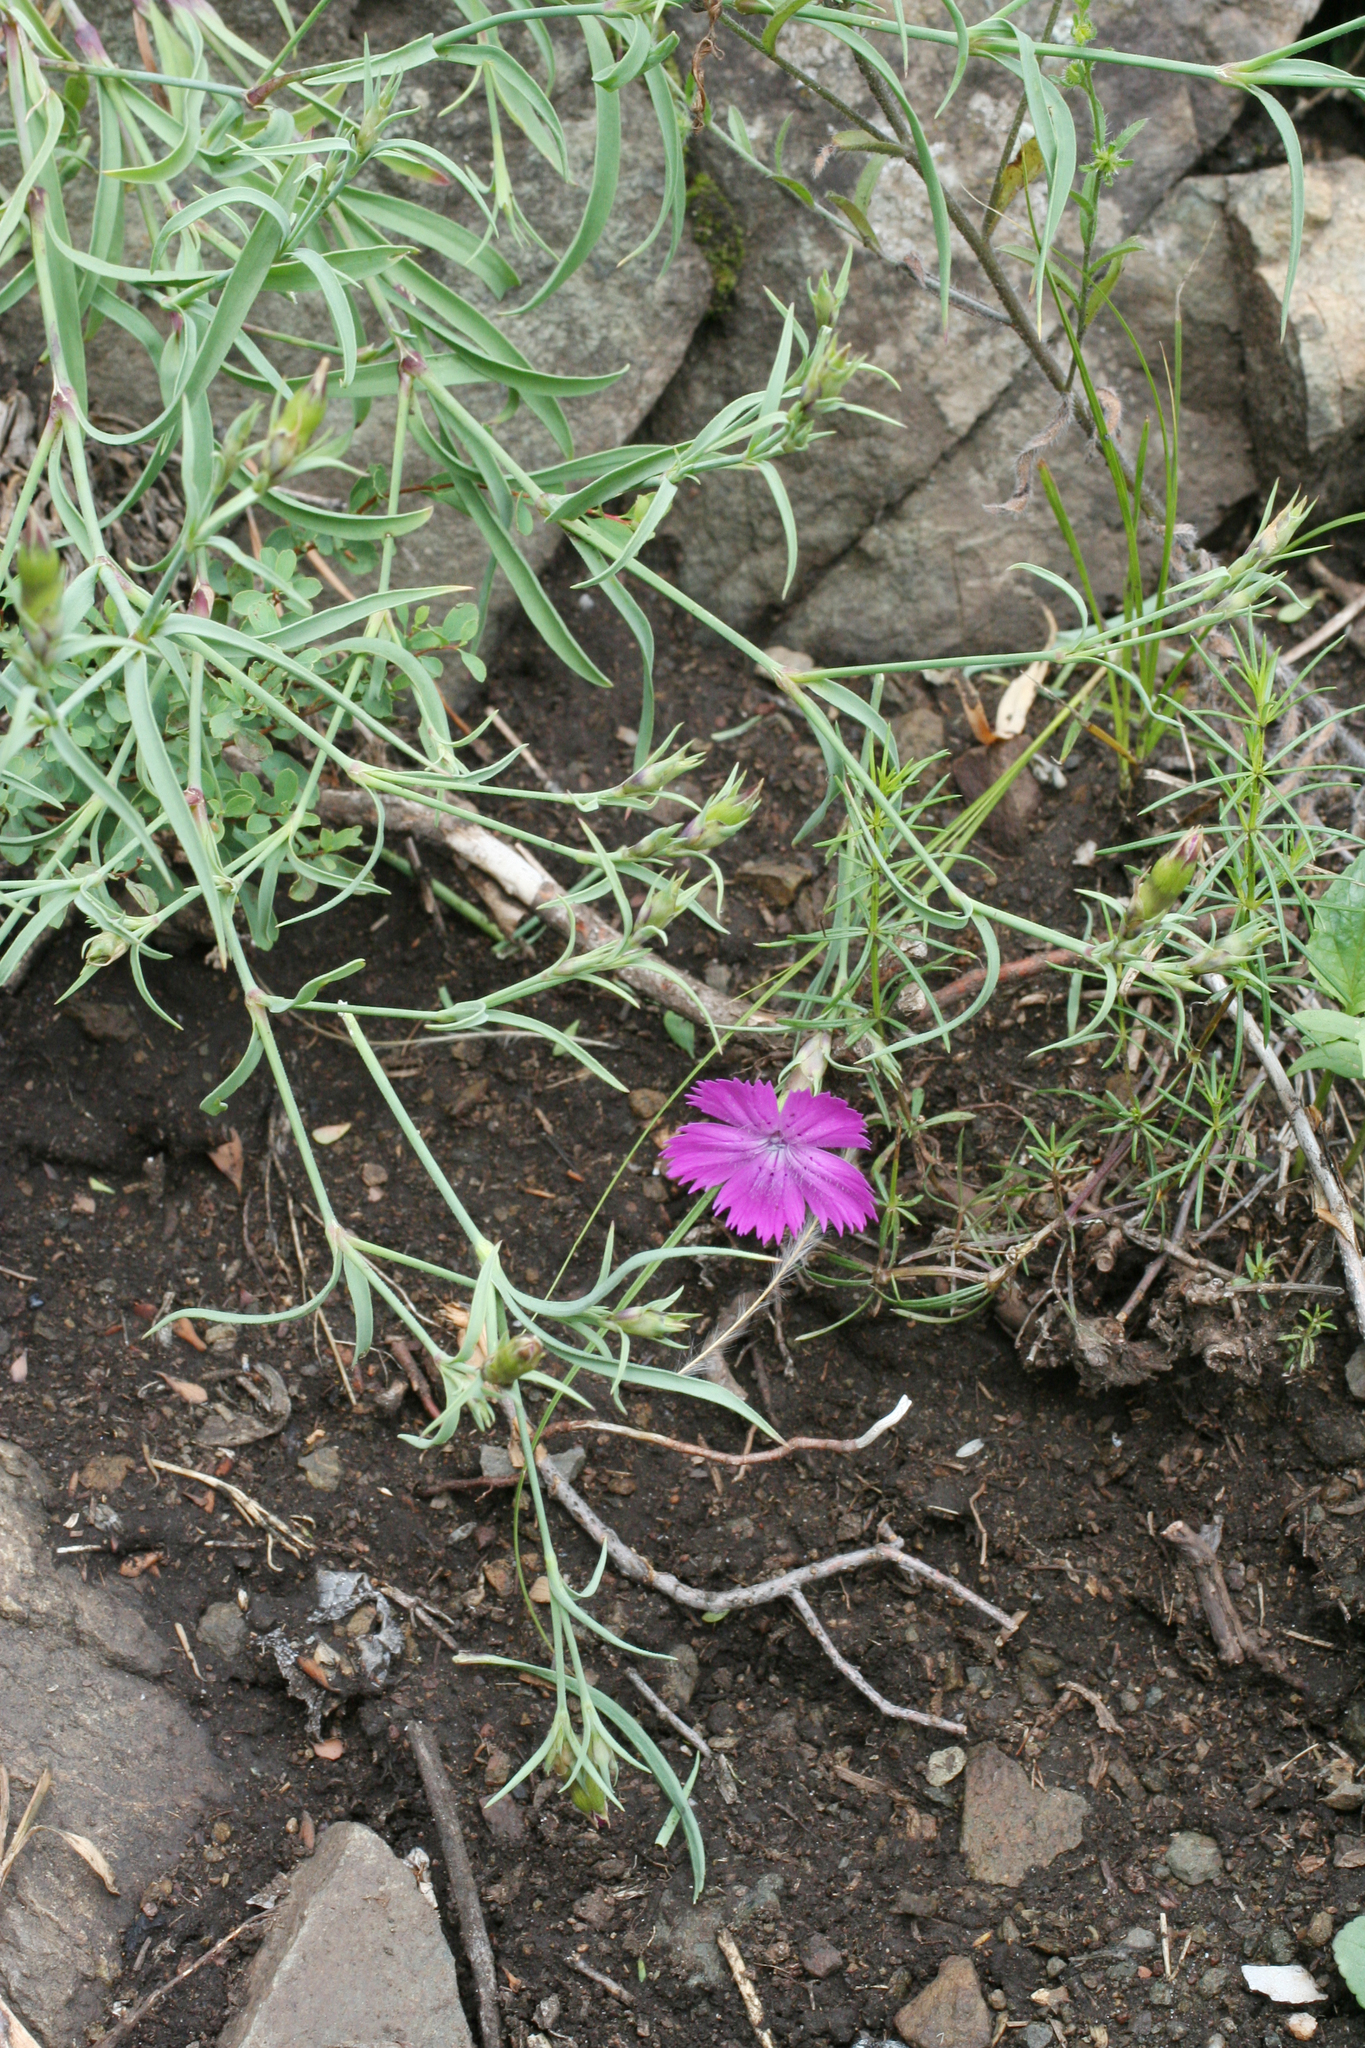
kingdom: Plantae
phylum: Tracheophyta
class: Magnoliopsida
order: Caryophyllales
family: Caryophyllaceae
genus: Dianthus
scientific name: Dianthus chinensis
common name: Rainbow pink
